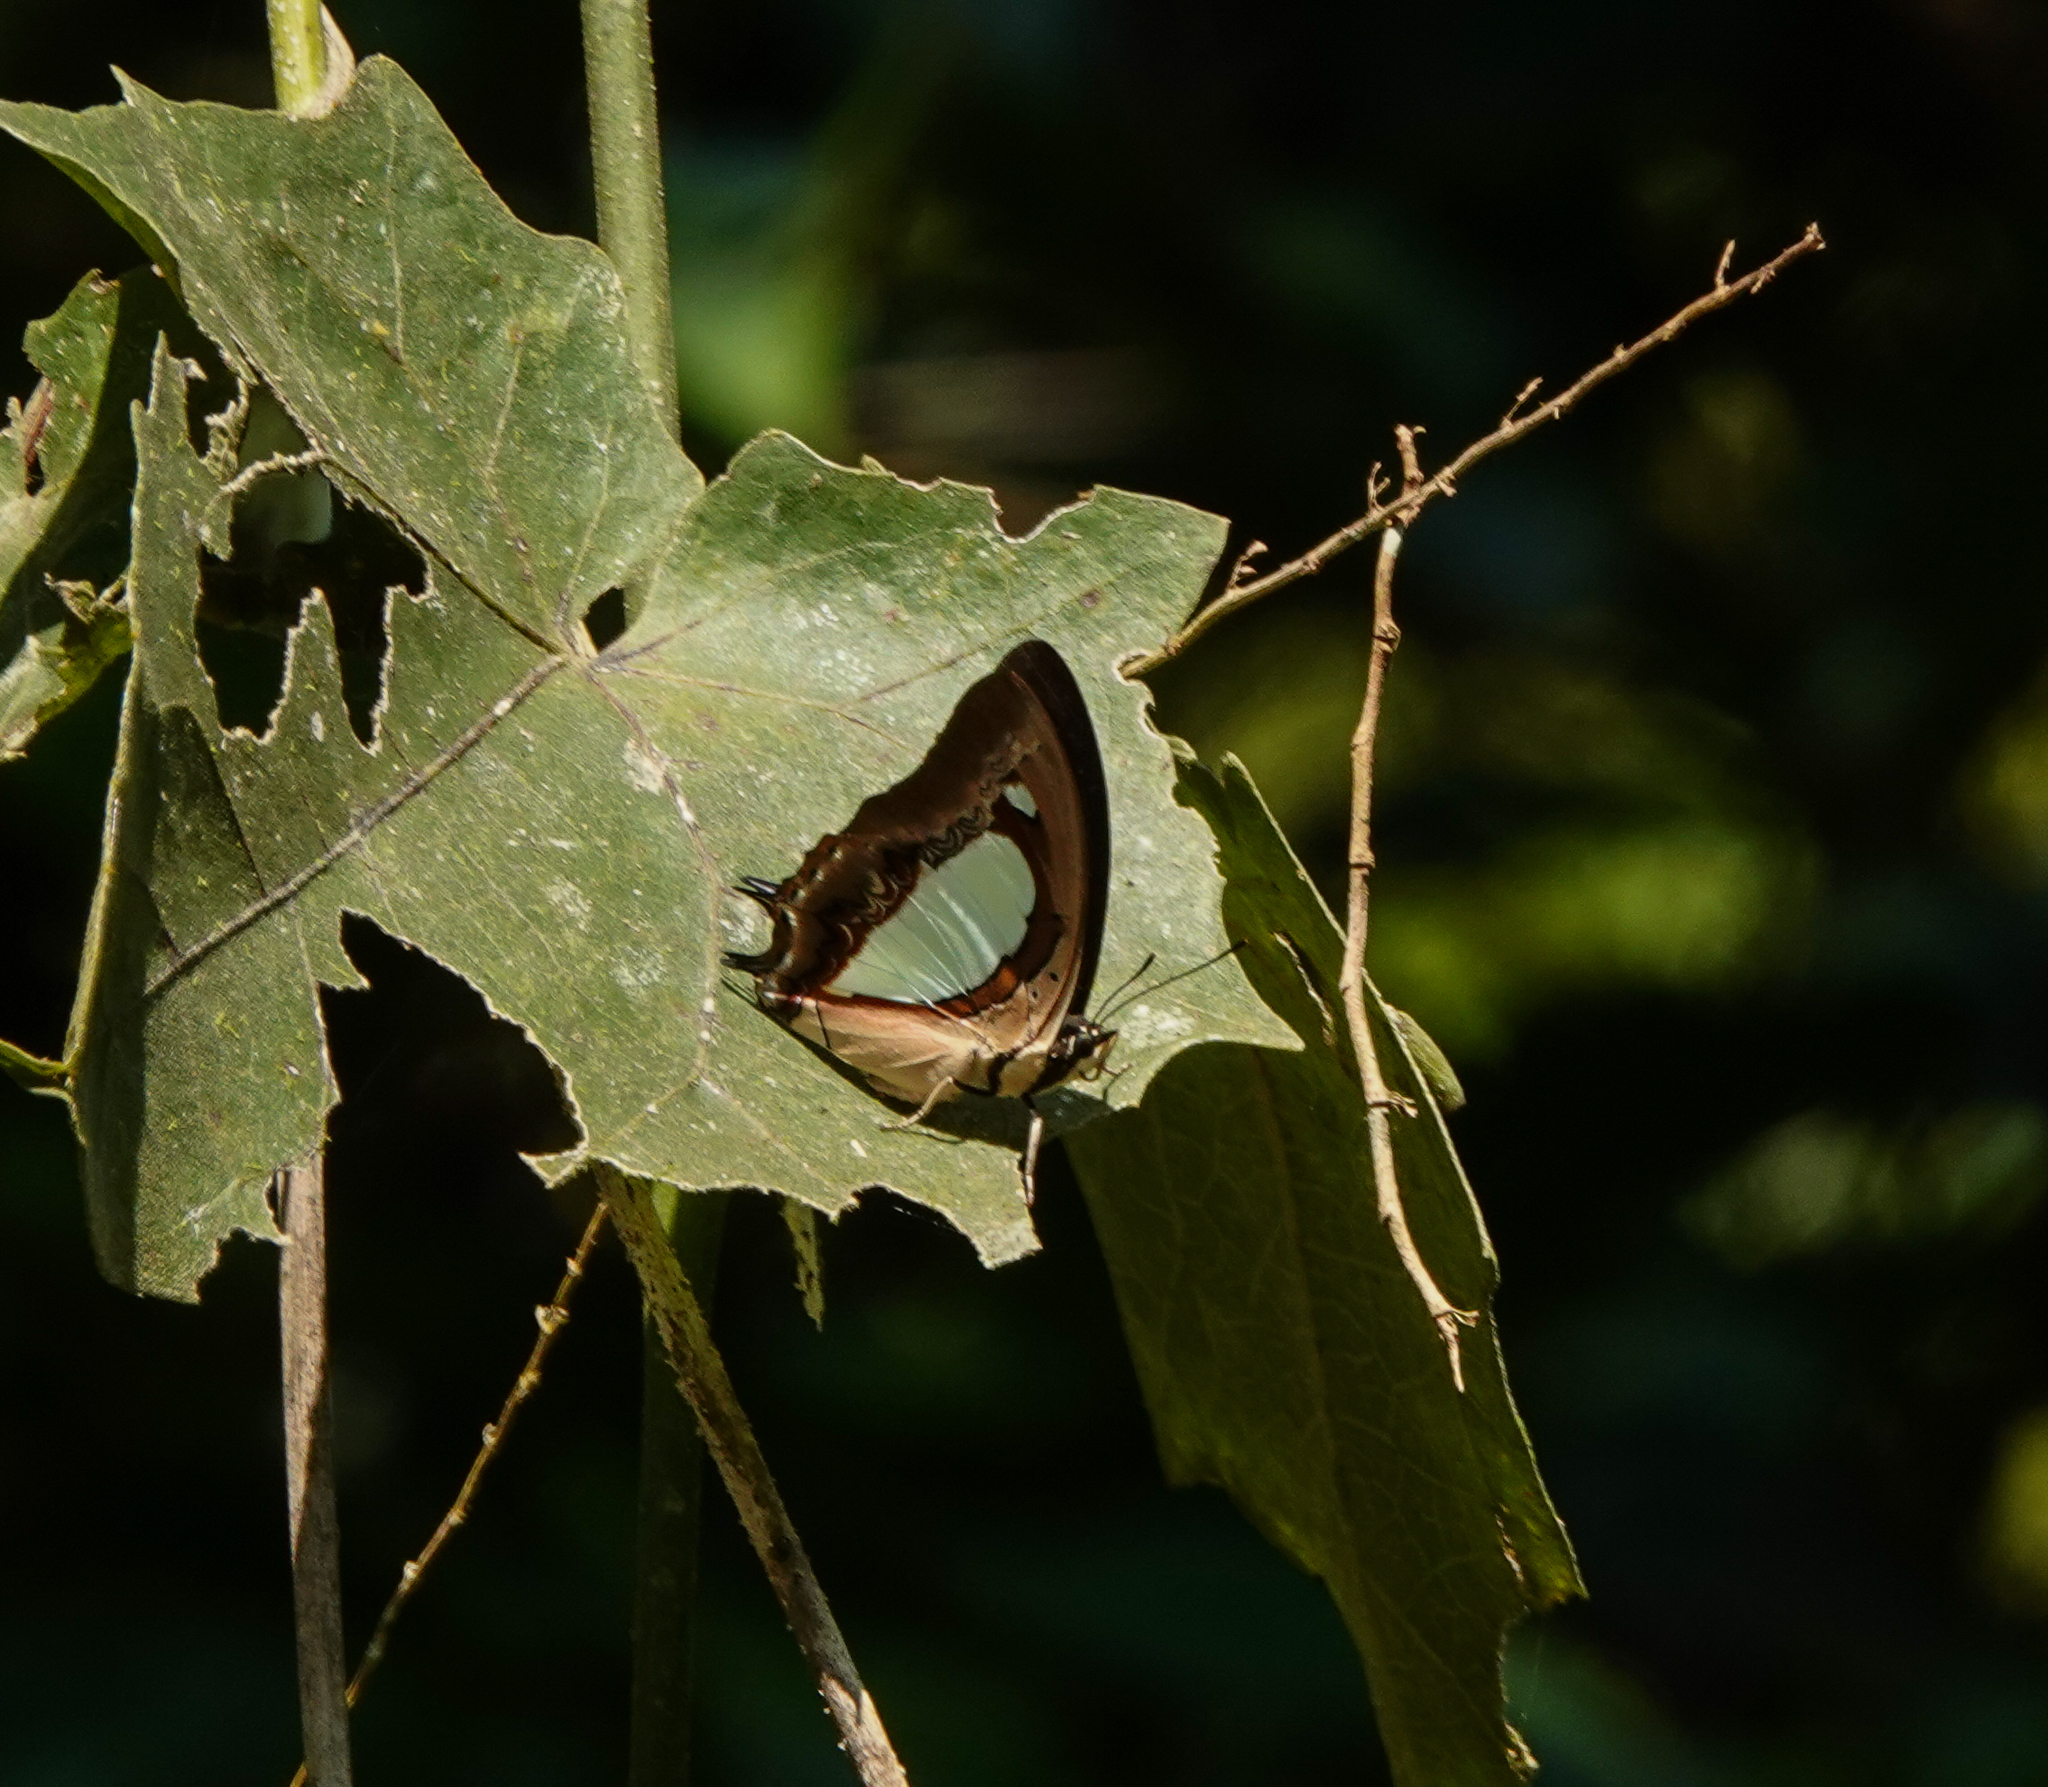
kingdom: Animalia
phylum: Arthropoda
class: Insecta
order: Lepidoptera
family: Nymphalidae
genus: Polyura
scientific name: Polyura athamas
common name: Common nawab
